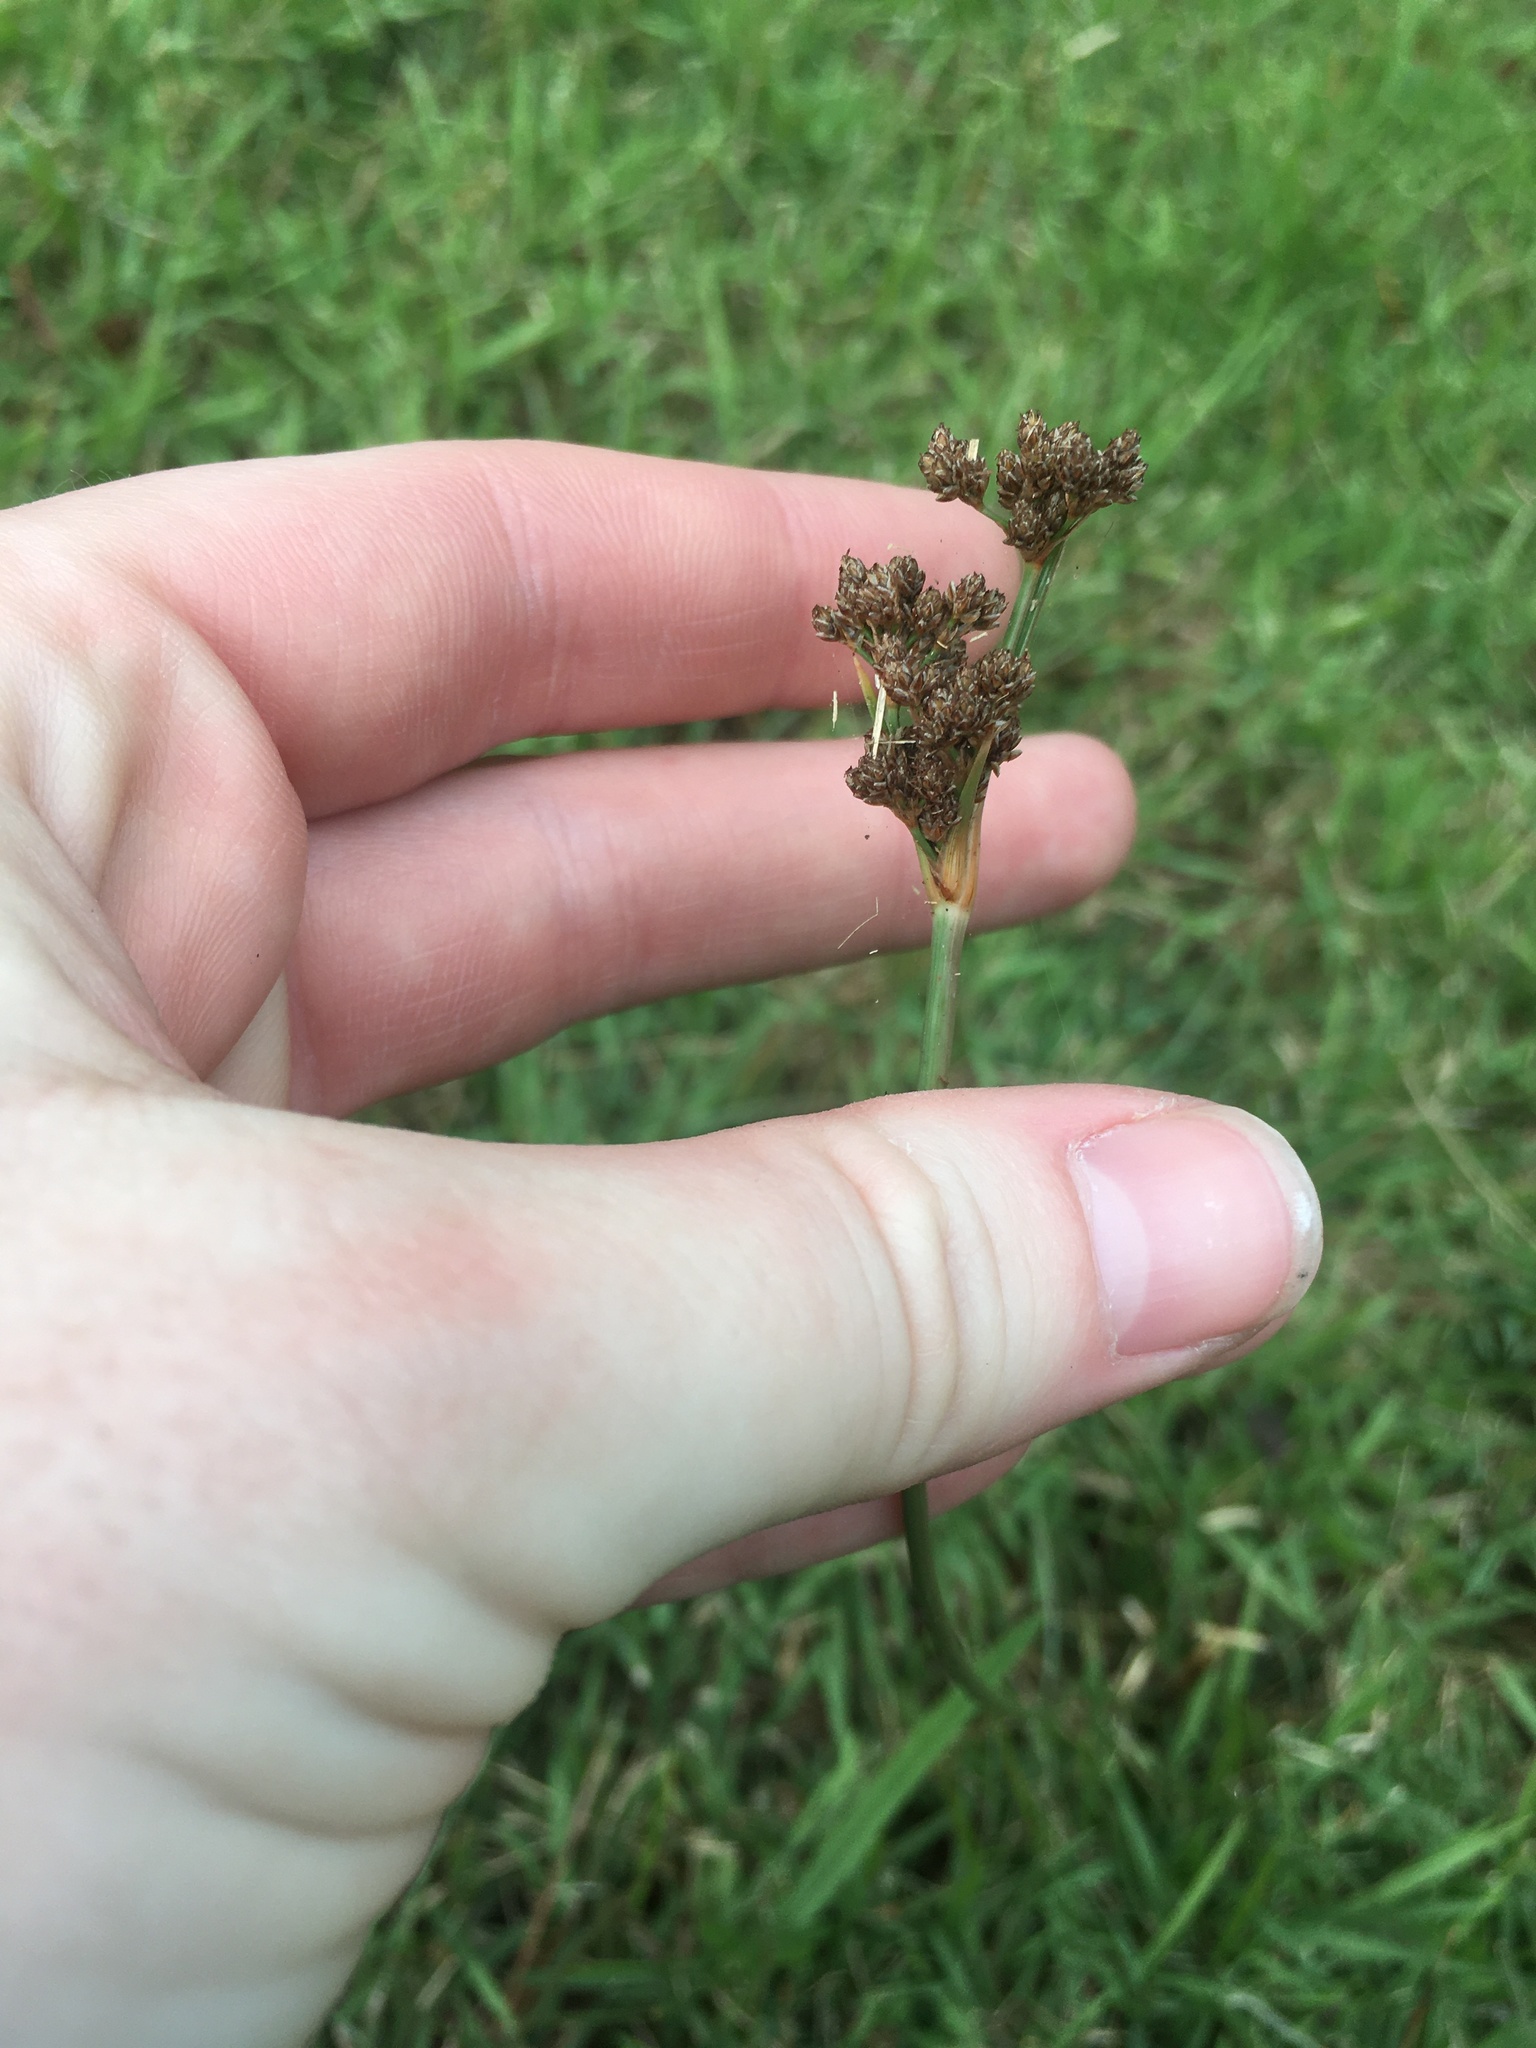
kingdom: Plantae
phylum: Tracheophyta
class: Liliopsida
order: Poales
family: Cyperaceae
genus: Fimbristylis
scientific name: Fimbristylis cymosa
